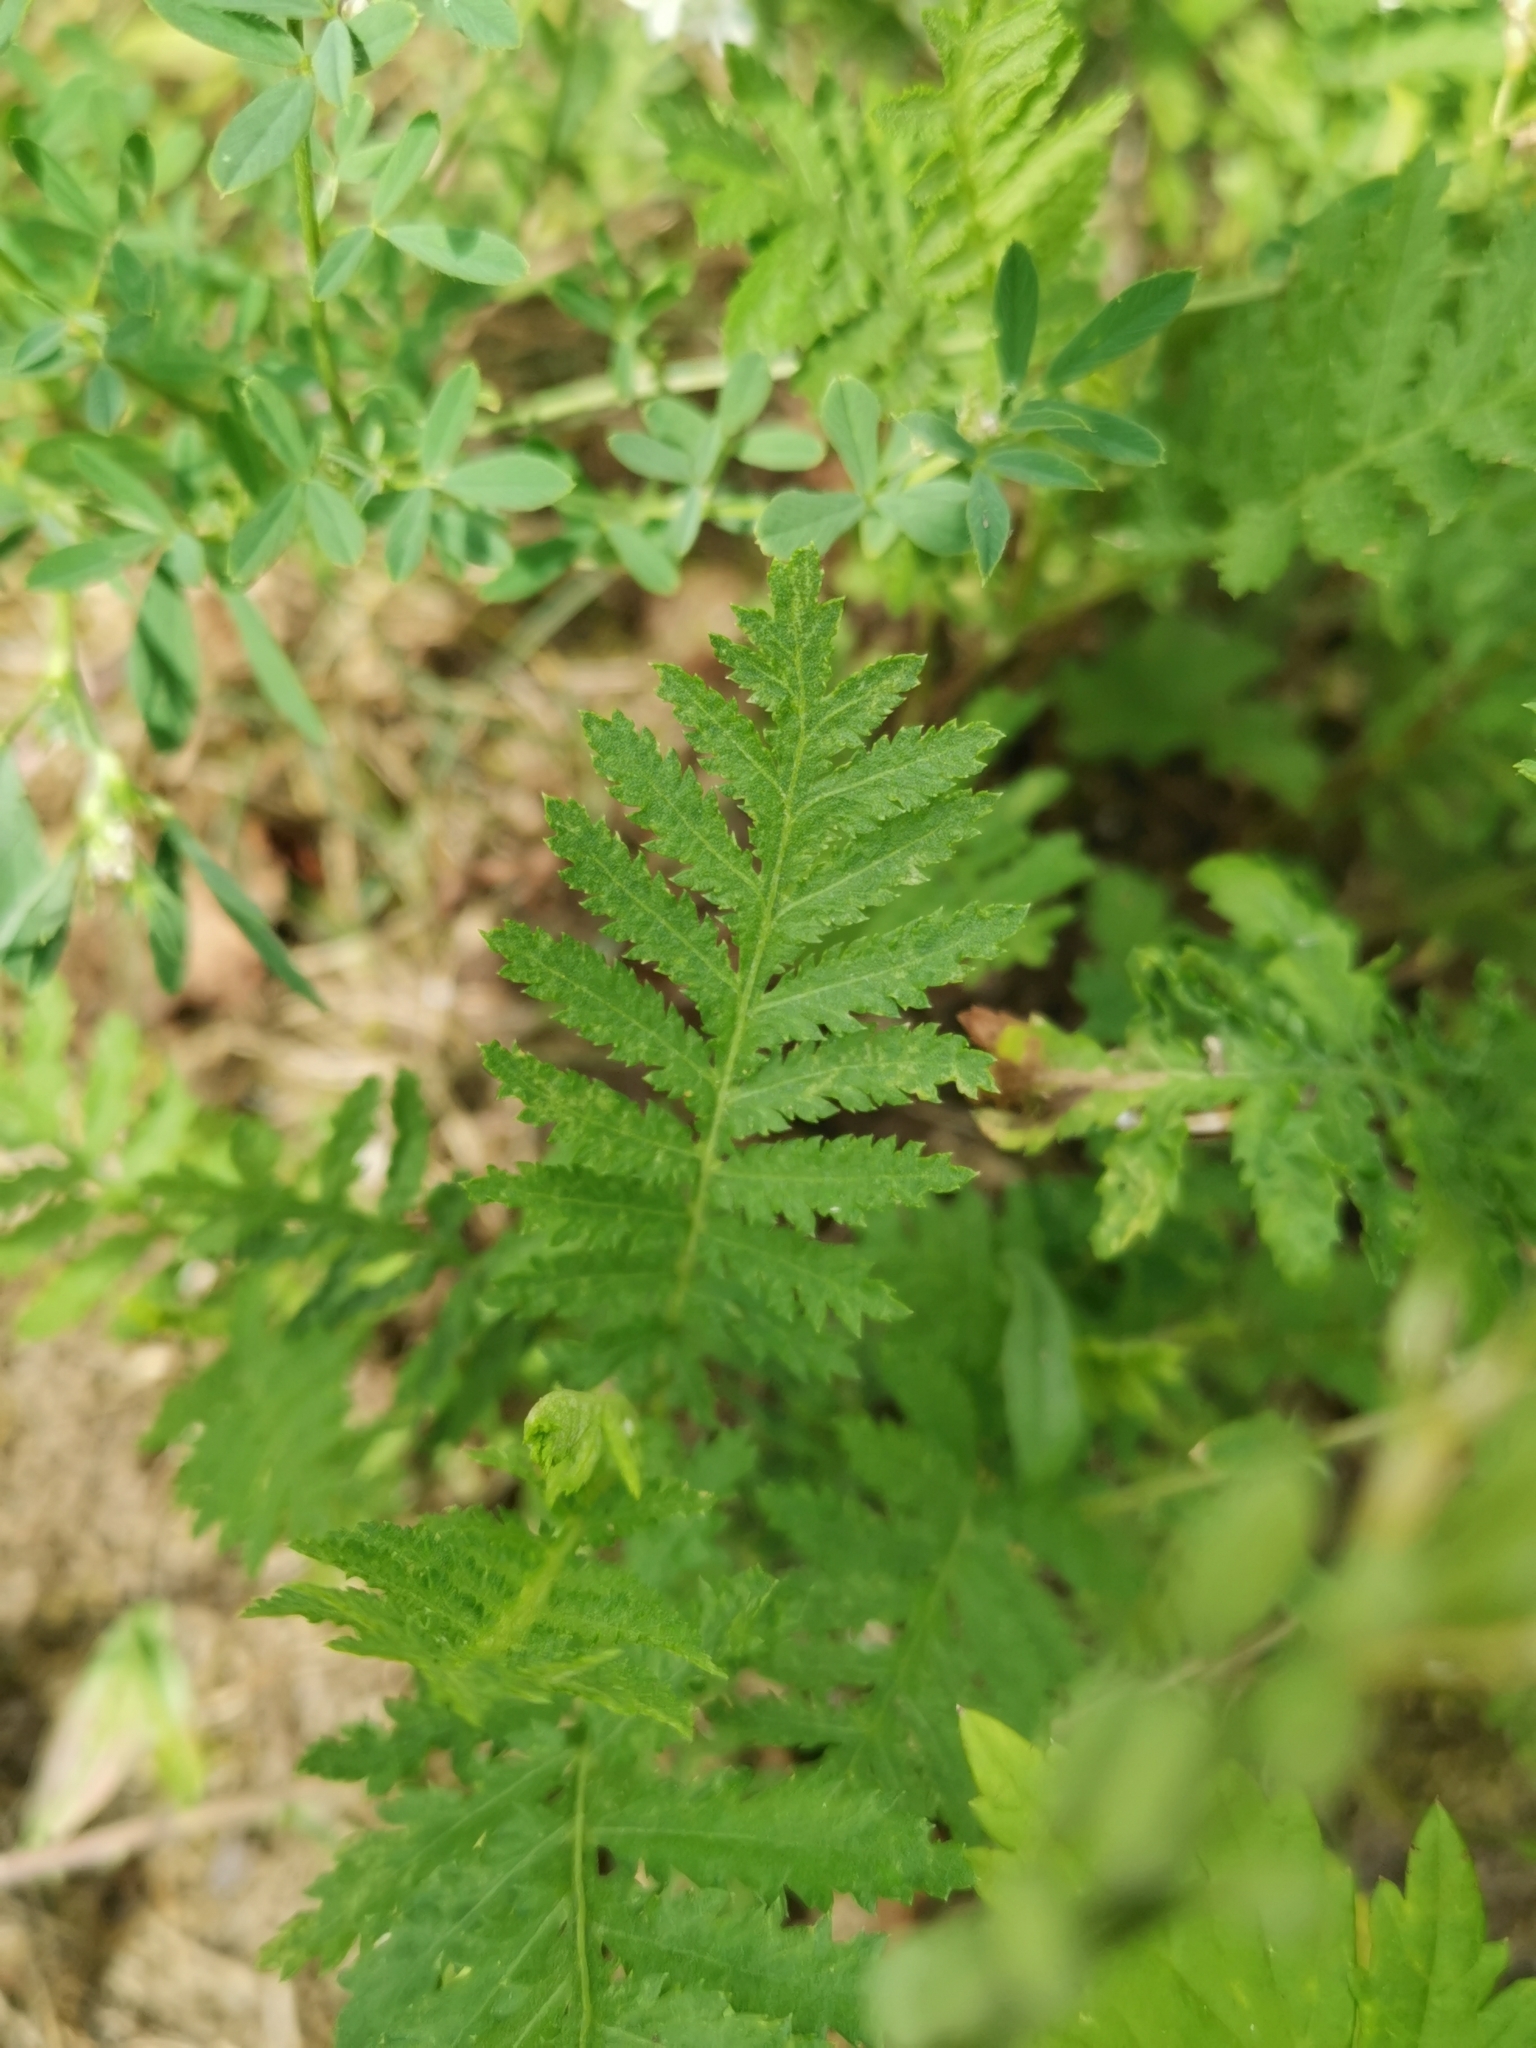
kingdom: Plantae
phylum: Tracheophyta
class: Magnoliopsida
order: Asterales
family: Asteraceae
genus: Tanacetum
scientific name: Tanacetum vulgare
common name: Common tansy
